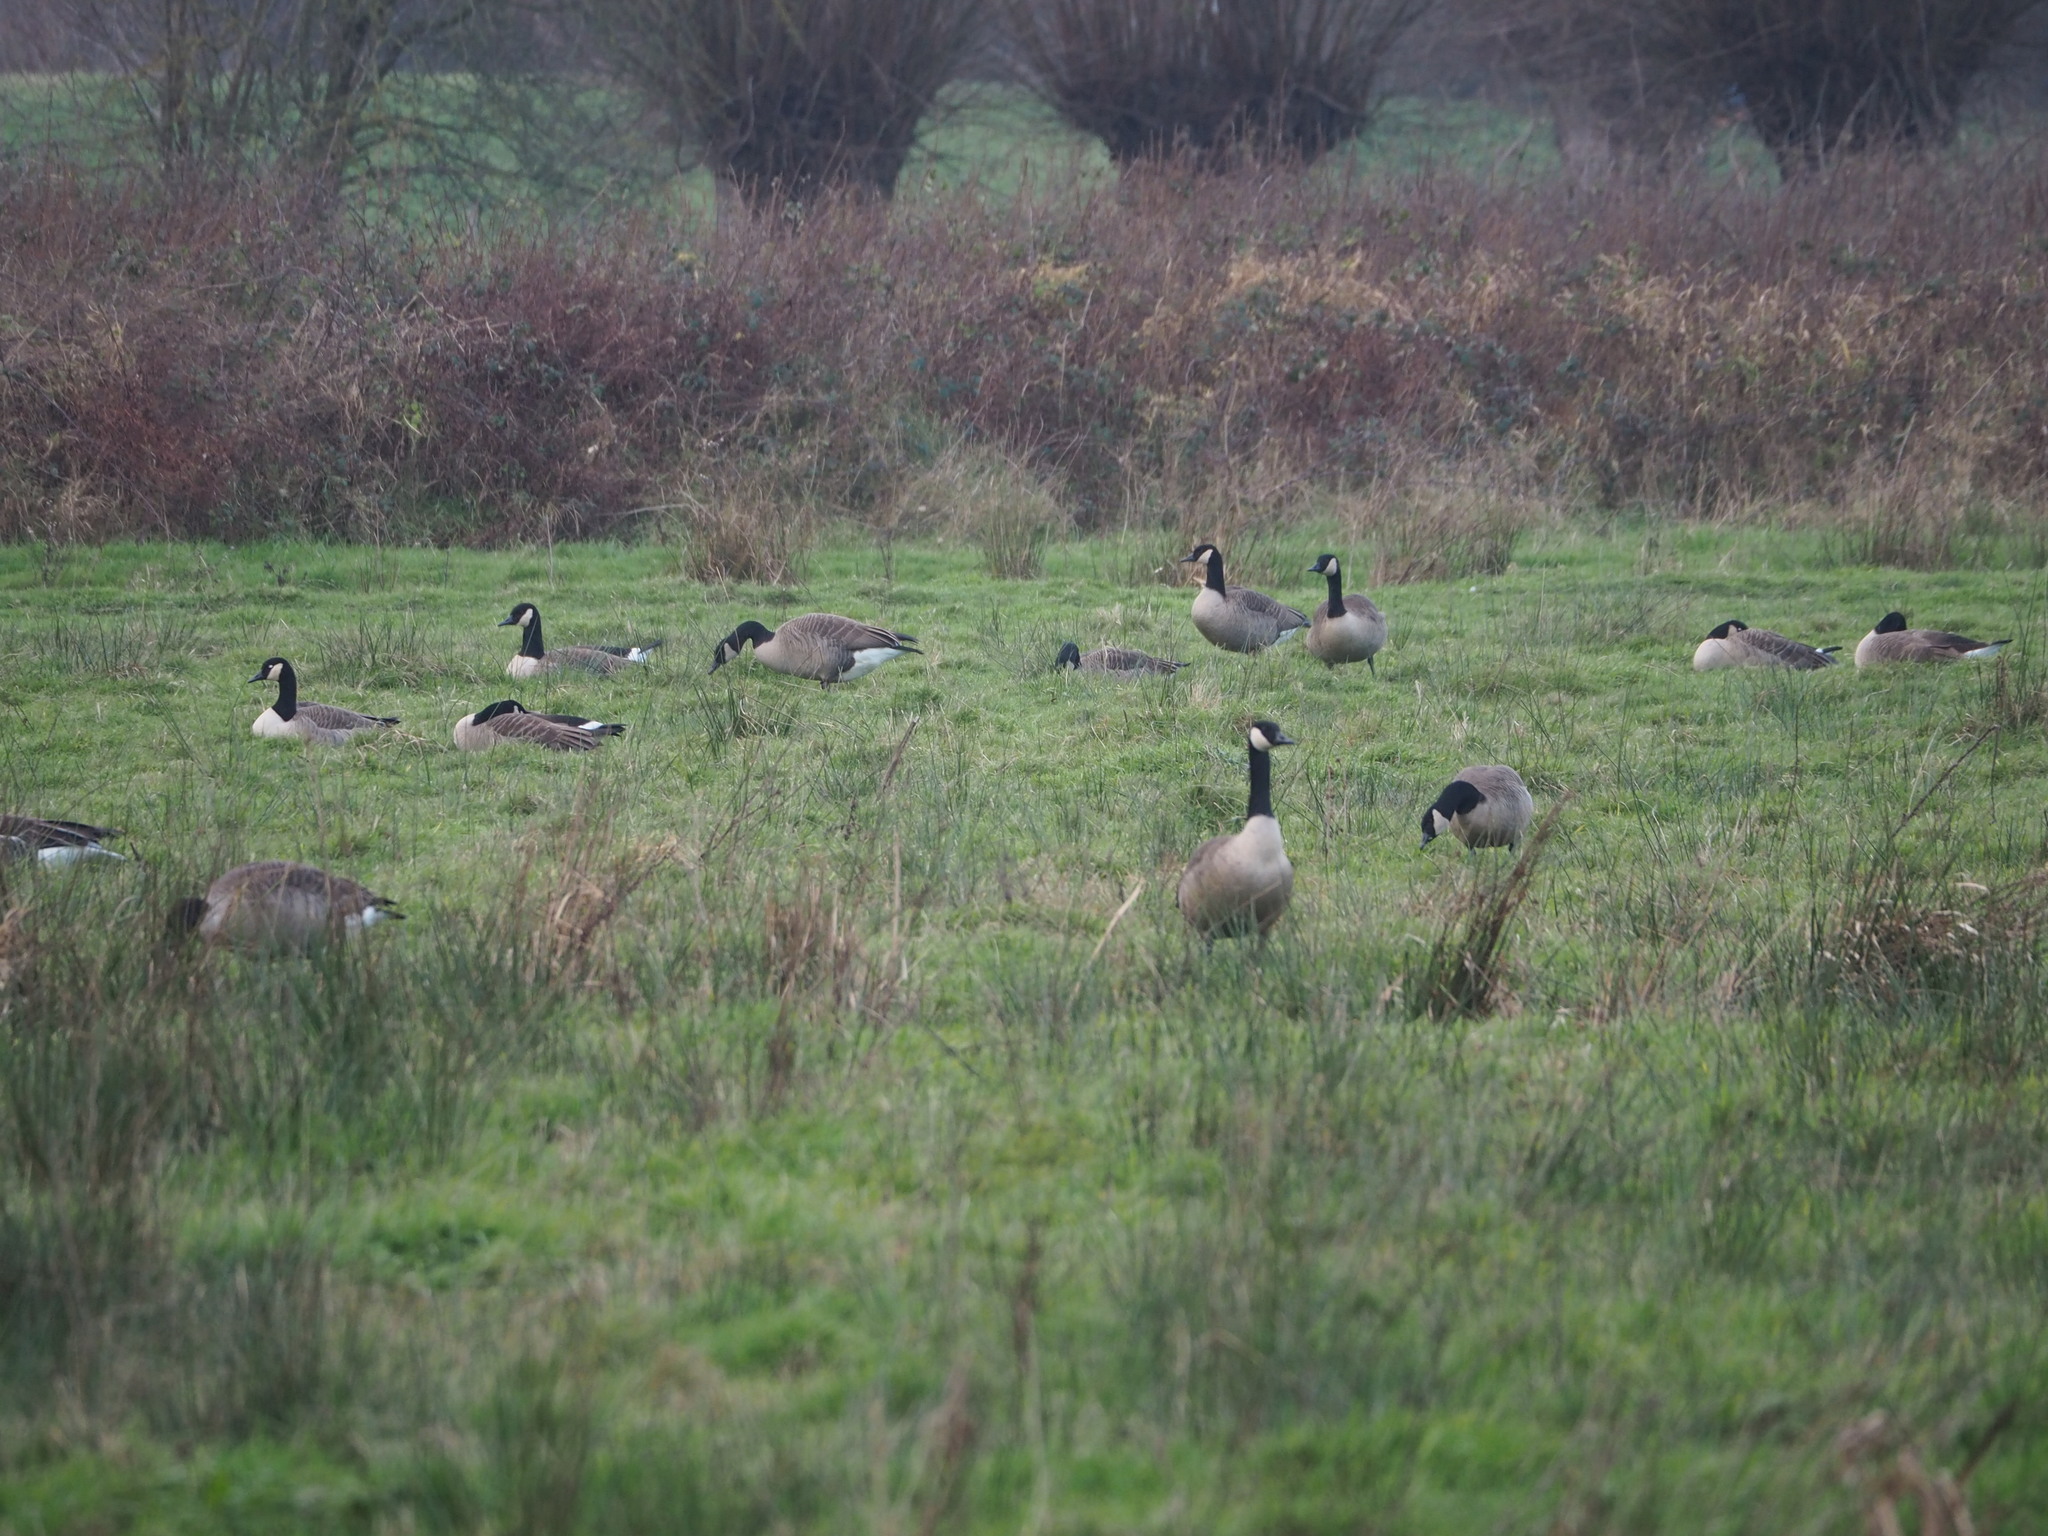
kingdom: Animalia
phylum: Chordata
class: Aves
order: Anseriformes
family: Anatidae
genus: Branta
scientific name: Branta canadensis
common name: Canada goose
